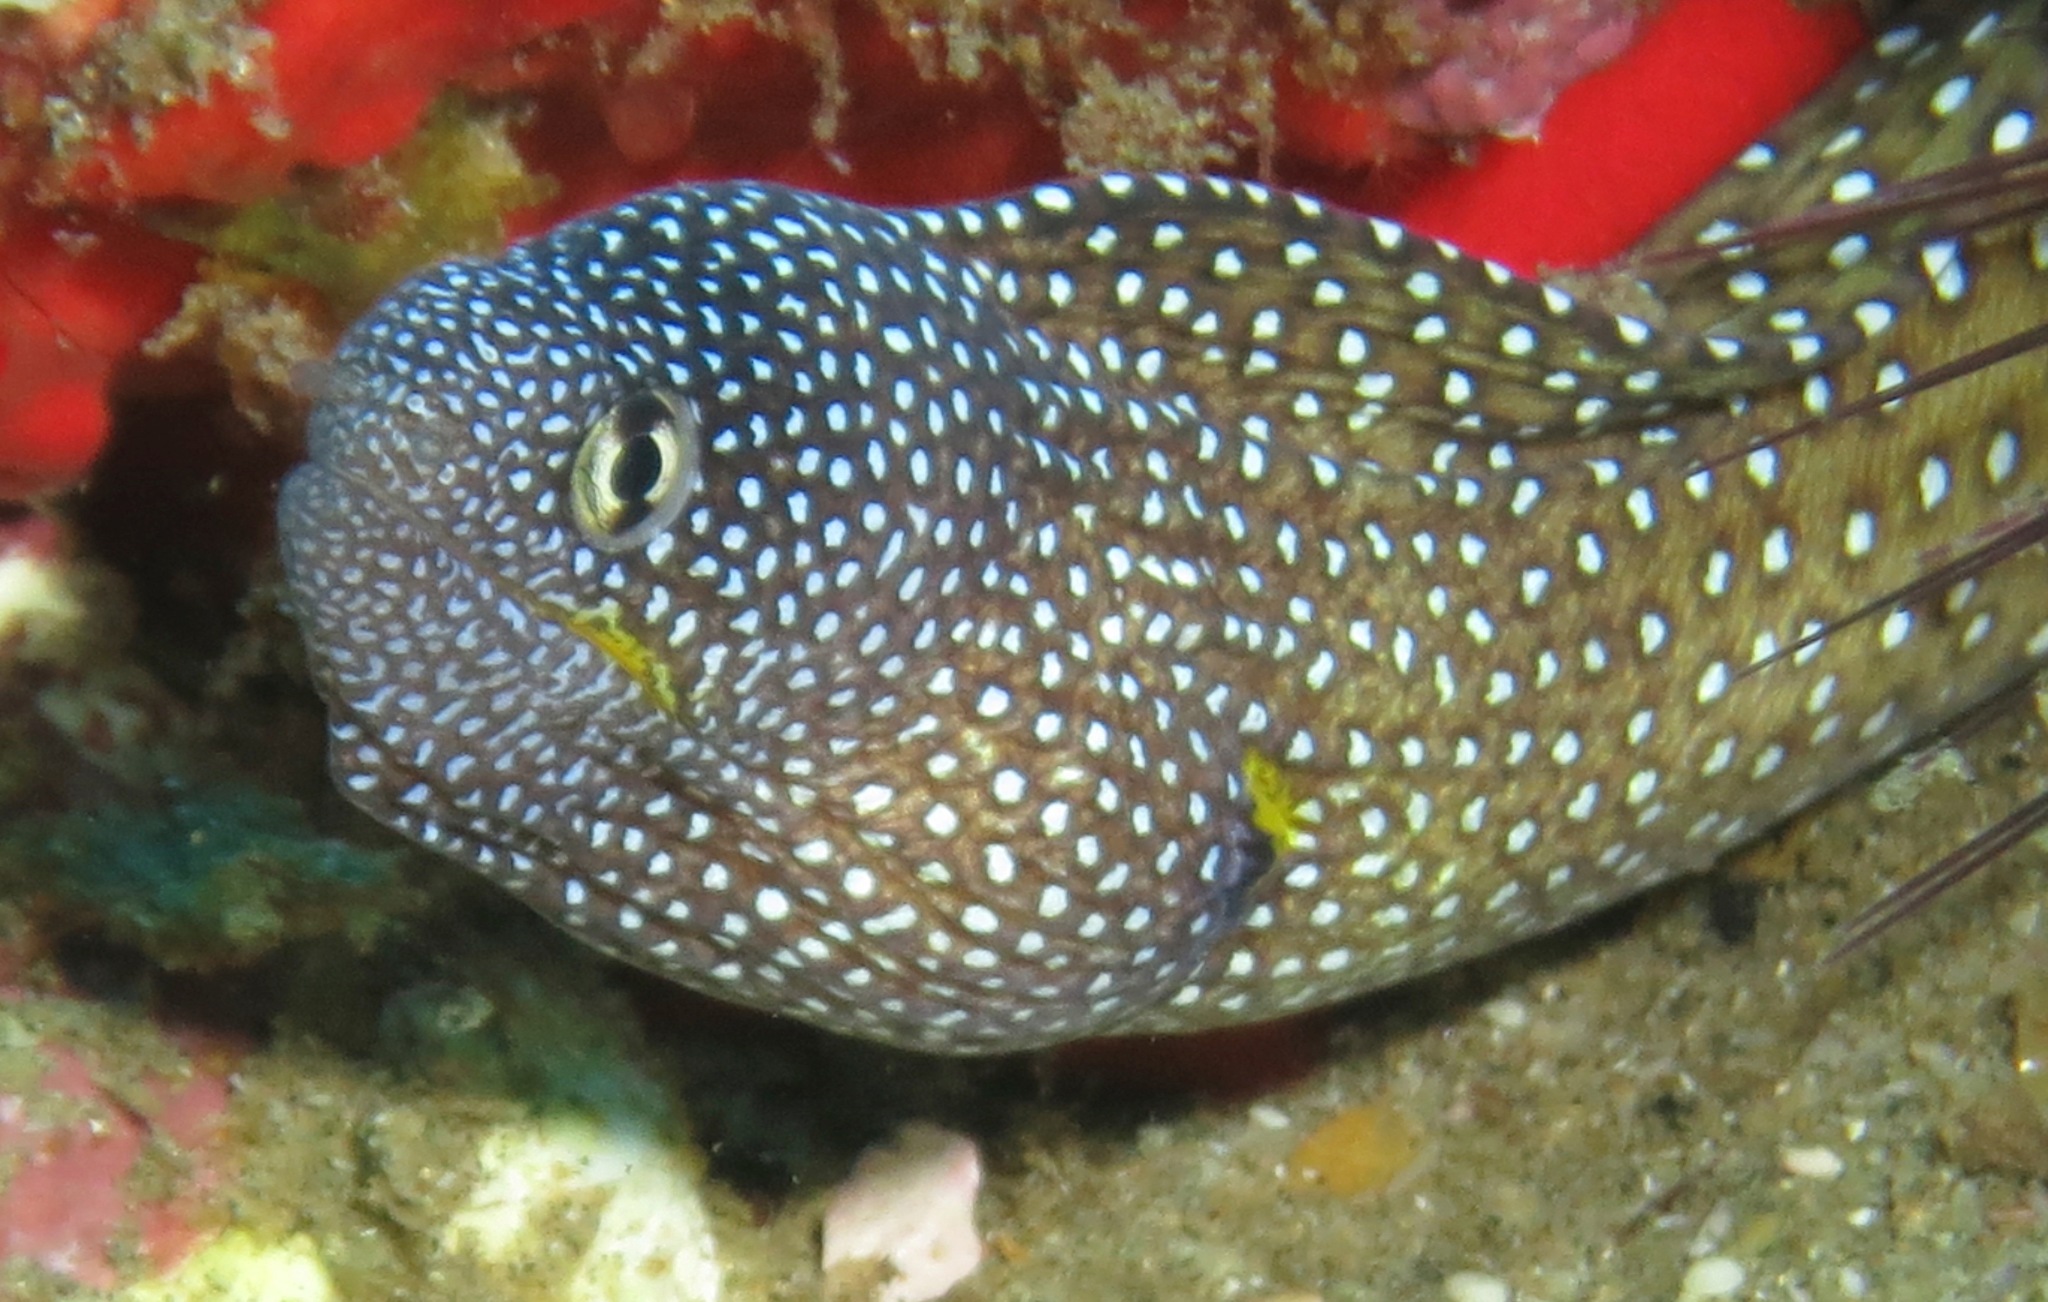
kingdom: Animalia
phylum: Chordata
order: Anguilliformes
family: Muraenidae
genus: Gymnothorax
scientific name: Gymnothorax nudivomer
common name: Yellowmouth moray
